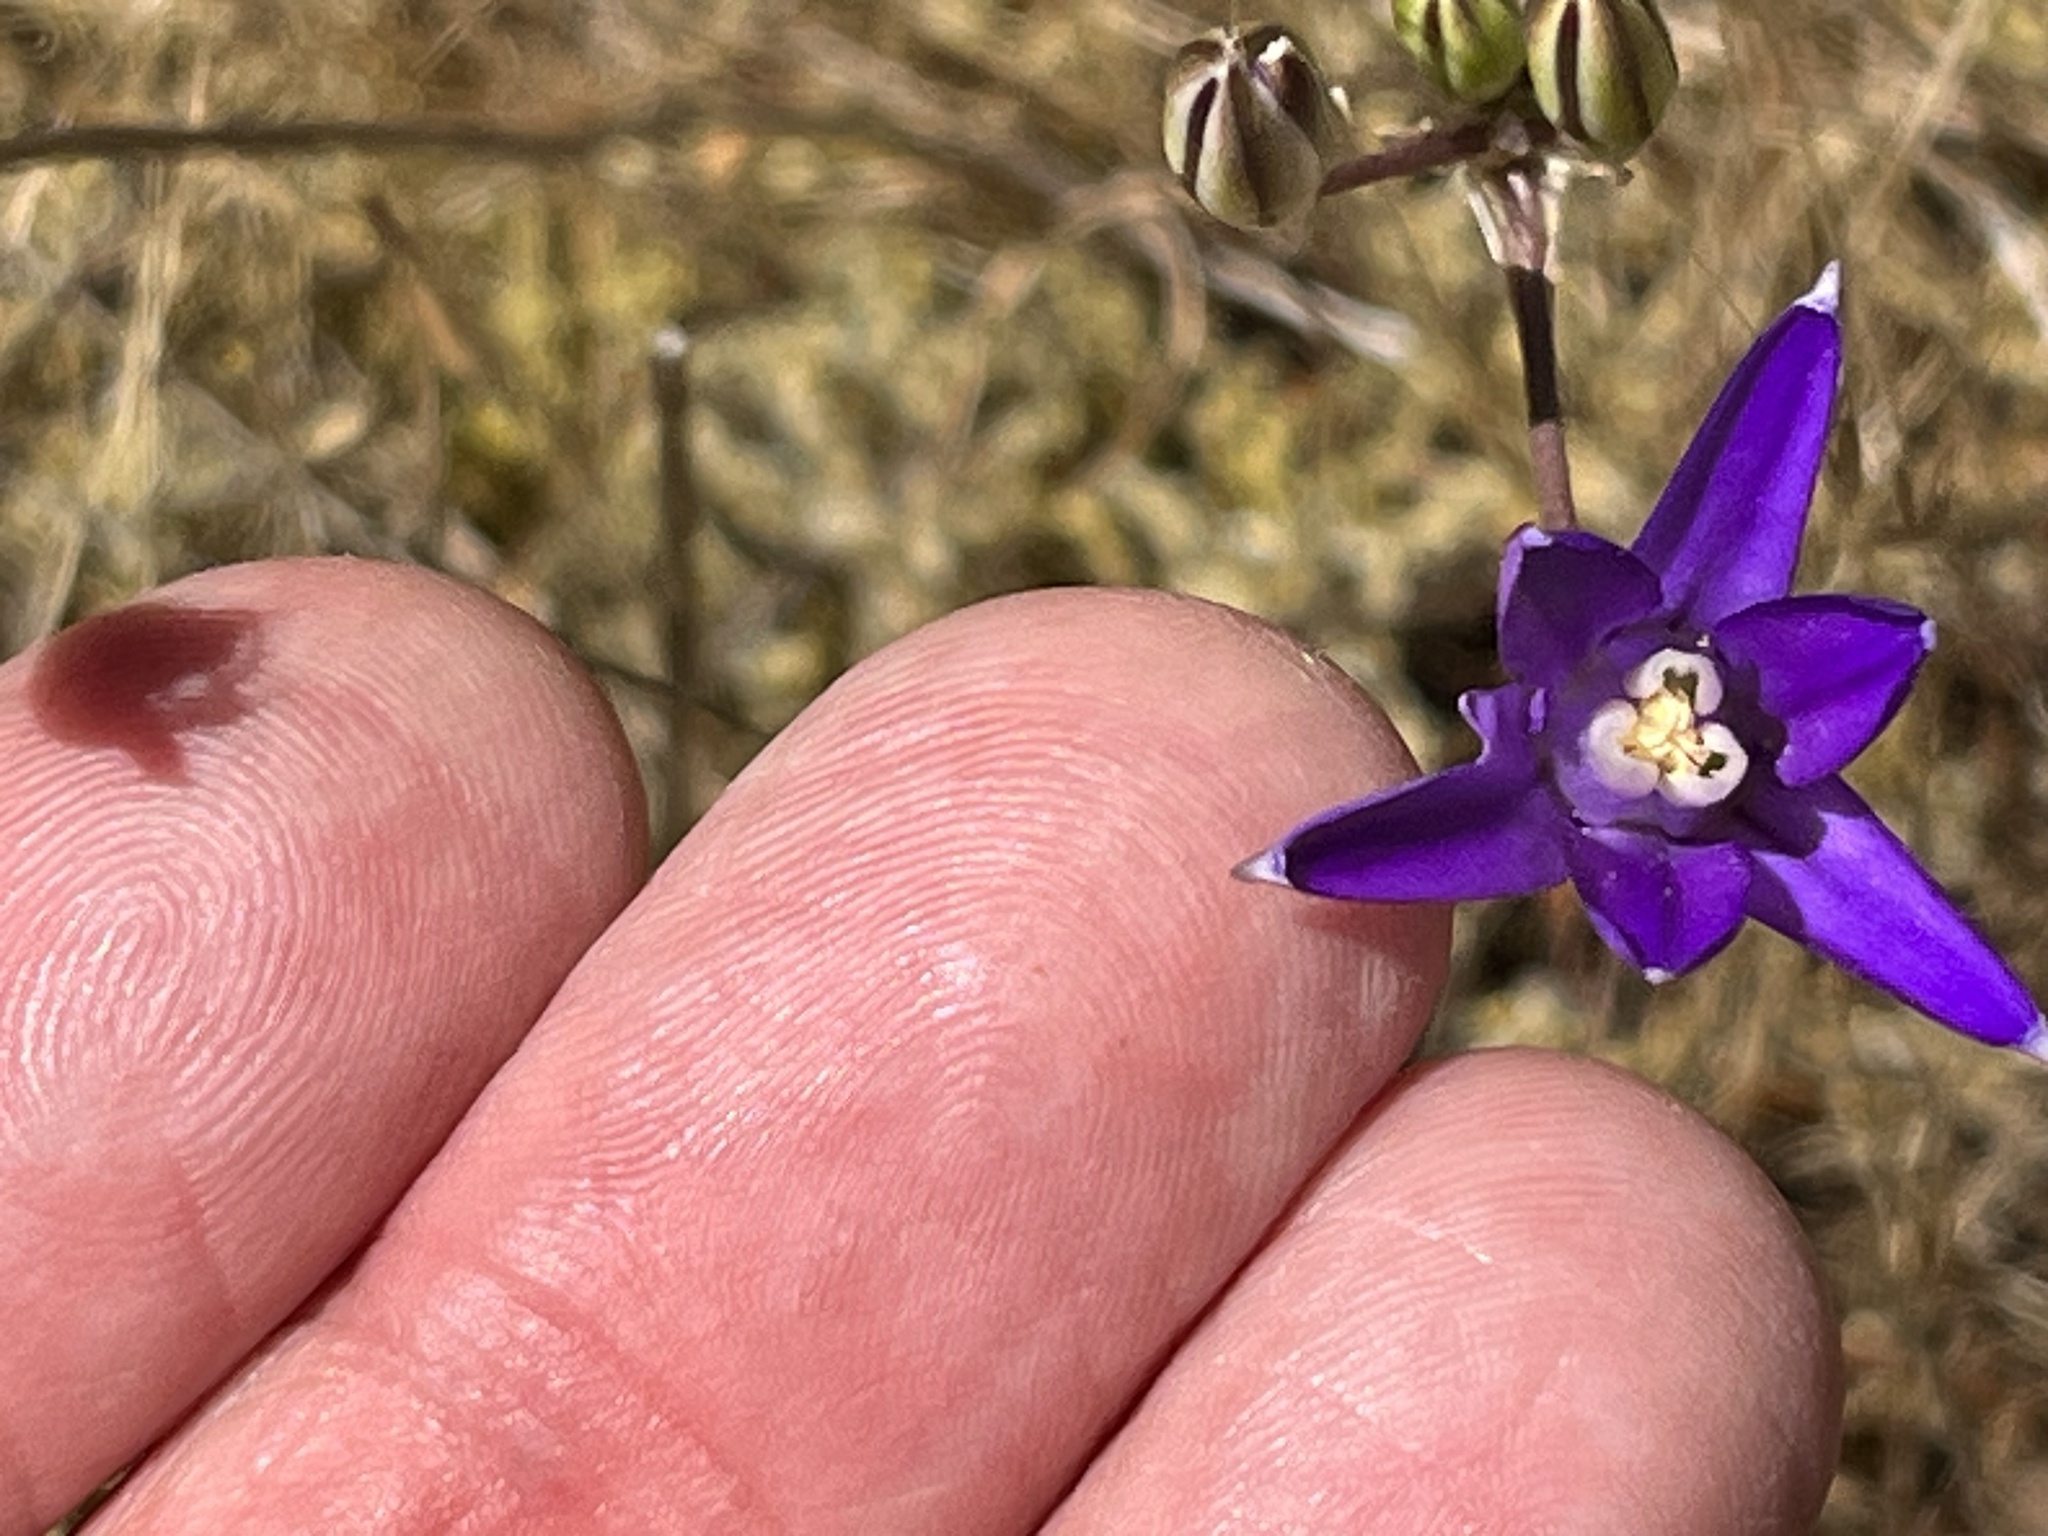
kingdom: Plantae
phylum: Tracheophyta
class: Liliopsida
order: Asparagales
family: Asparagaceae
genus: Brodiaea
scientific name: Brodiaea coronaria
